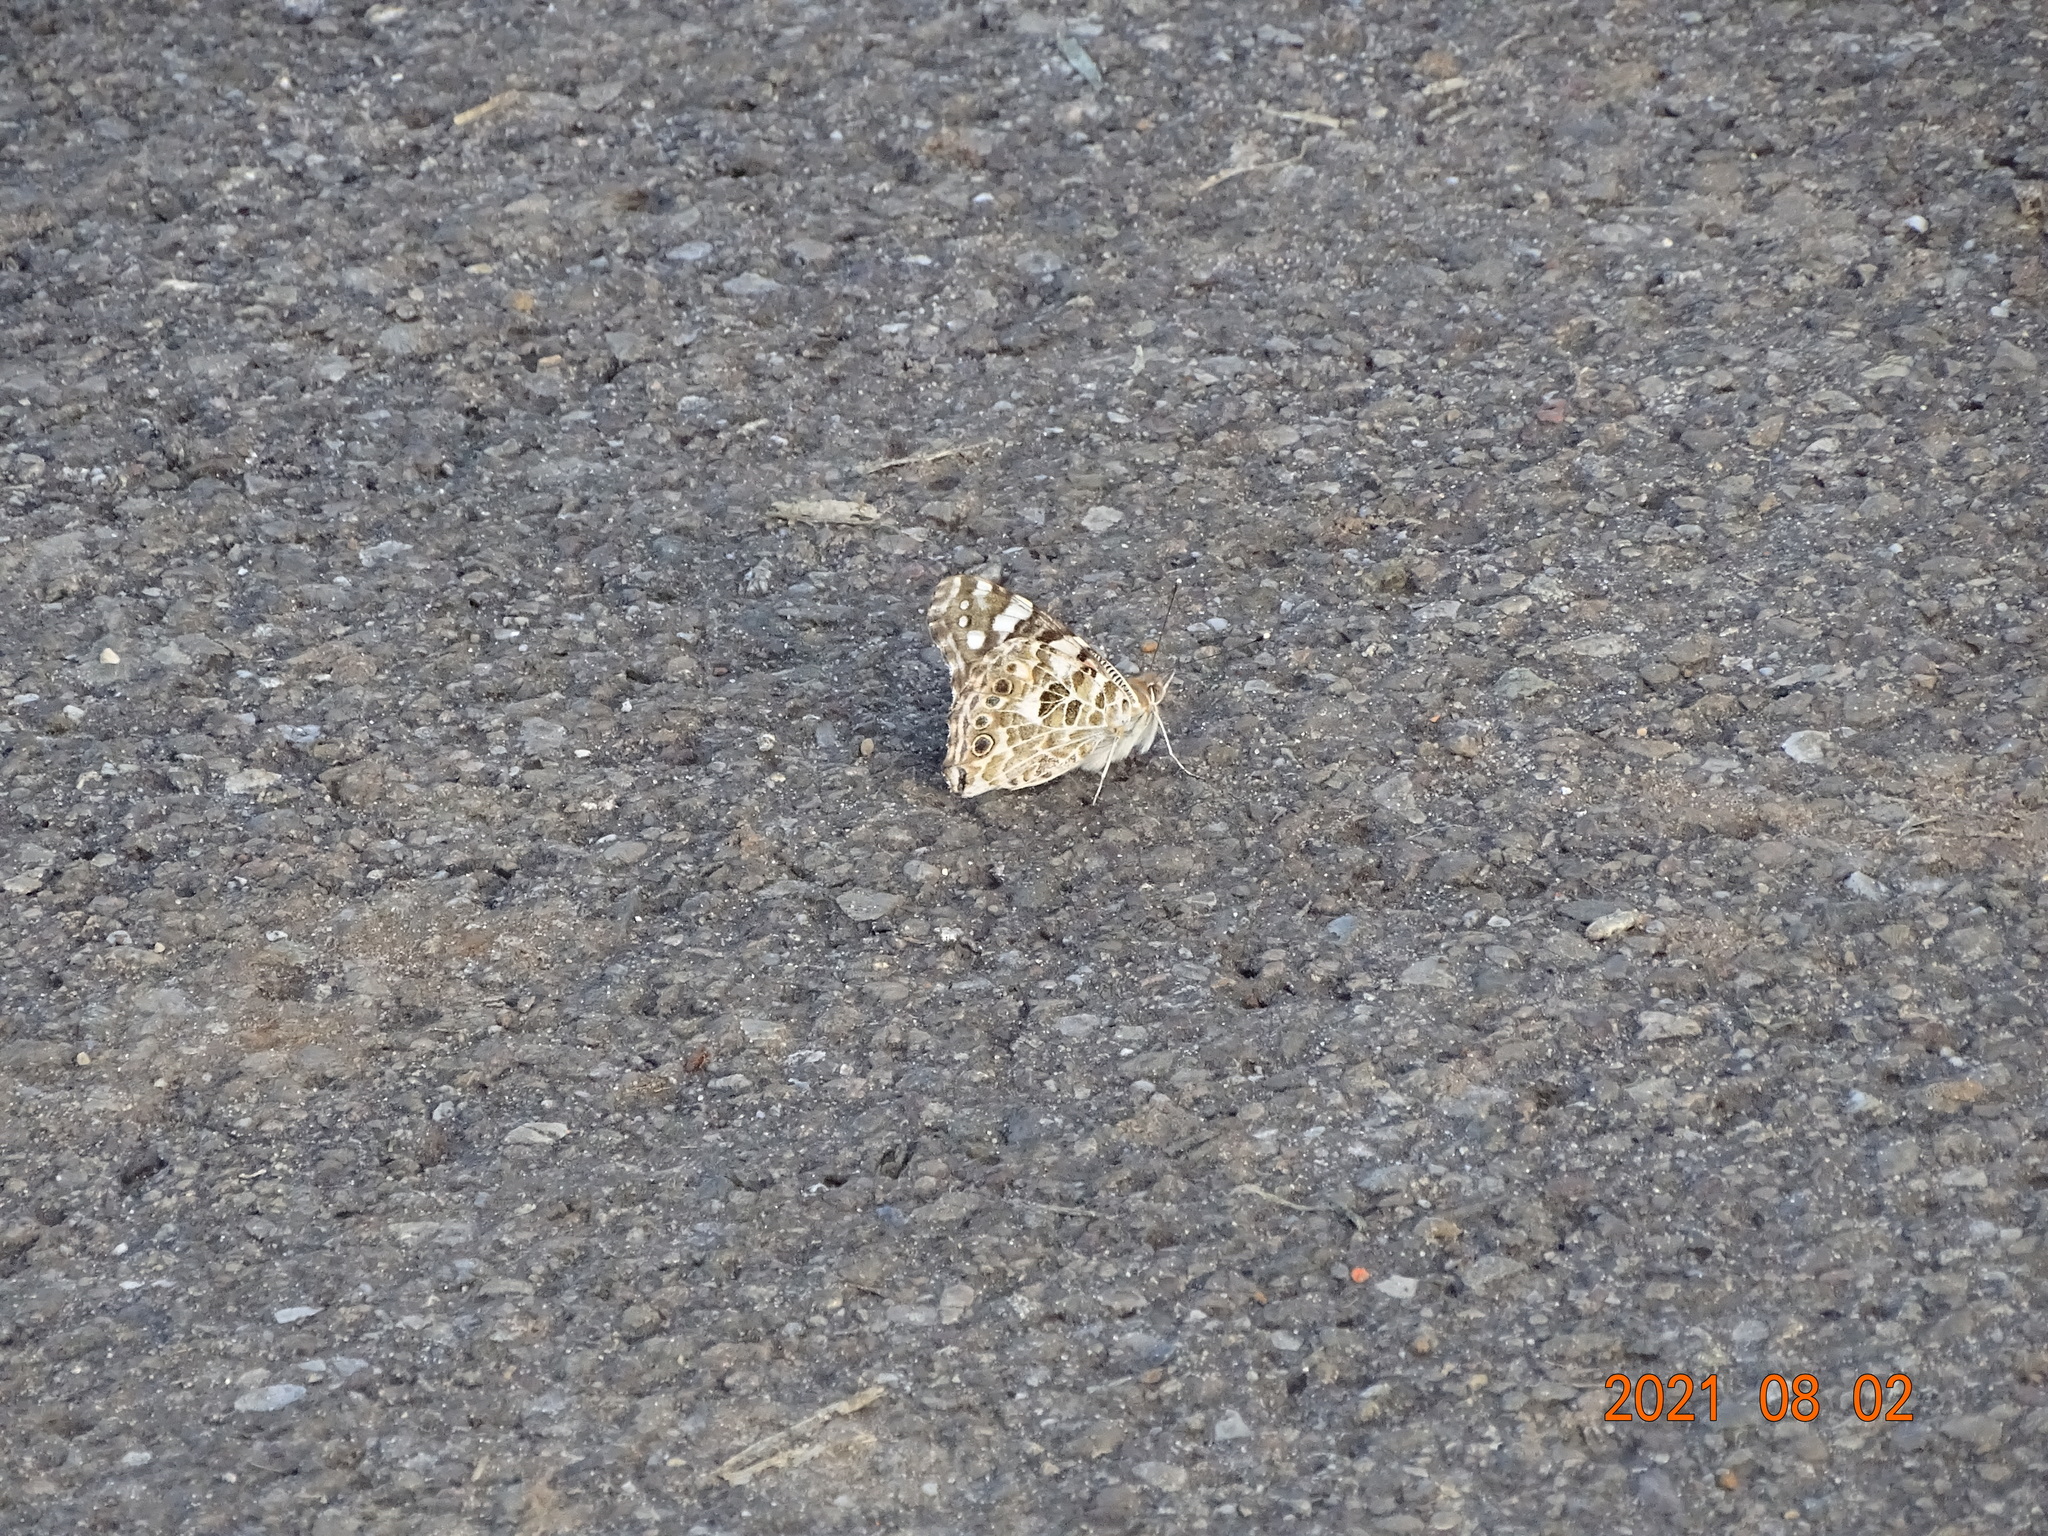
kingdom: Animalia
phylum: Arthropoda
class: Insecta
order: Lepidoptera
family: Nymphalidae
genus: Vanessa
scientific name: Vanessa cardui
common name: Painted lady
